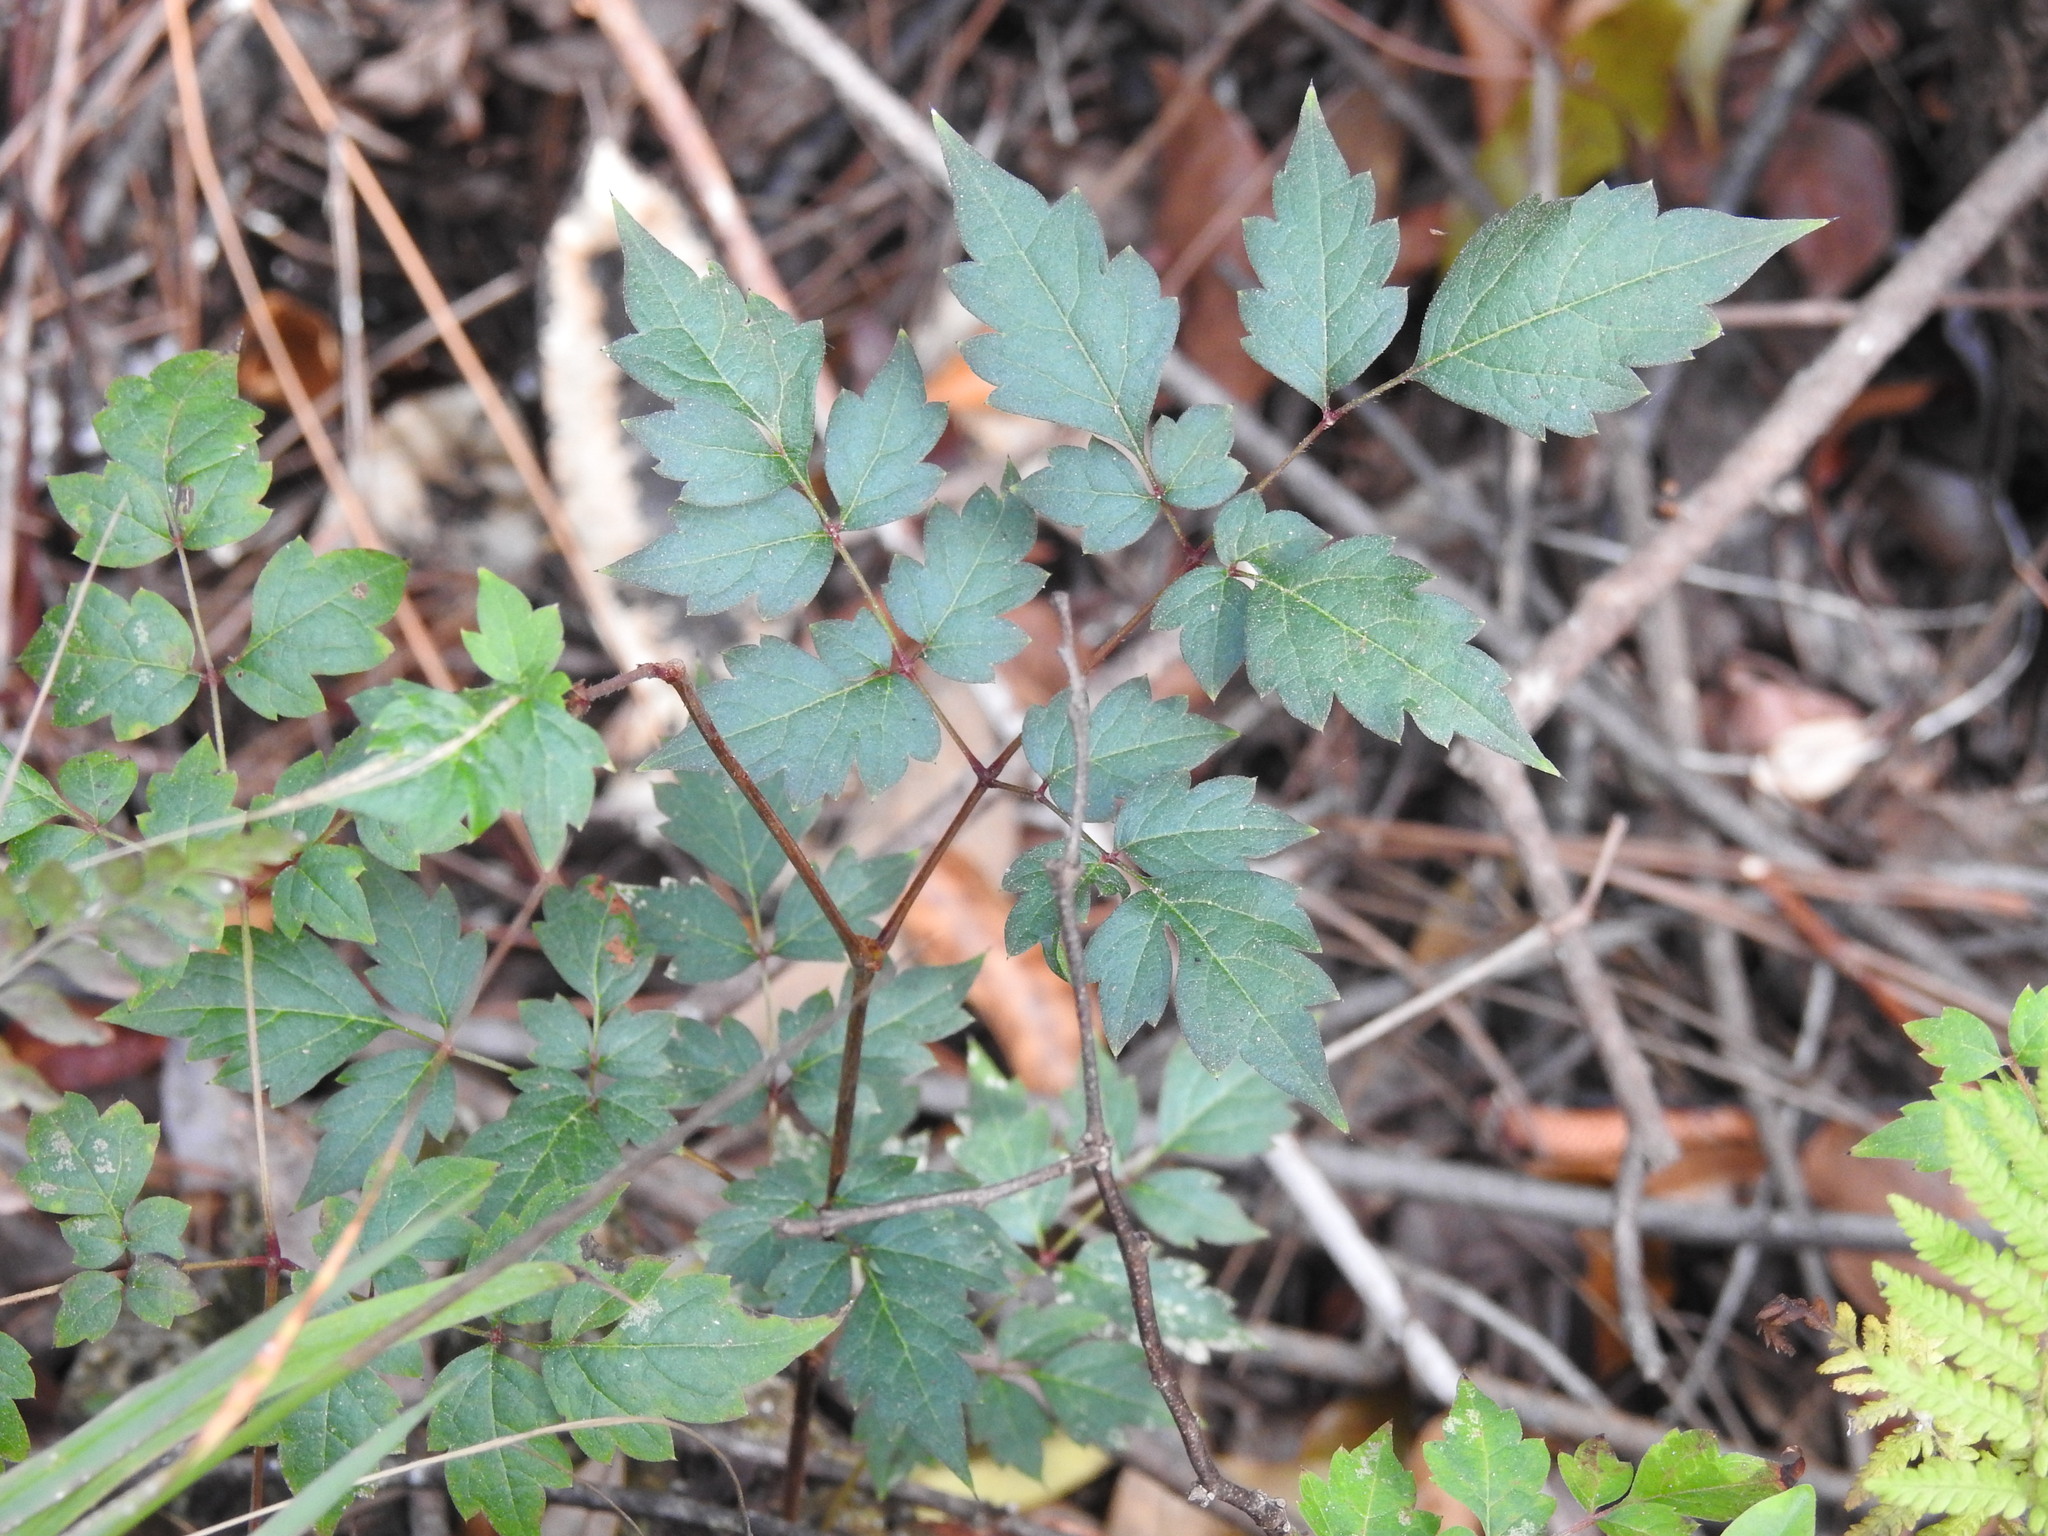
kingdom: Plantae
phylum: Tracheophyta
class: Magnoliopsida
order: Vitales
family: Vitaceae
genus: Nekemias
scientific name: Nekemias arborea
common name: Peppervine
